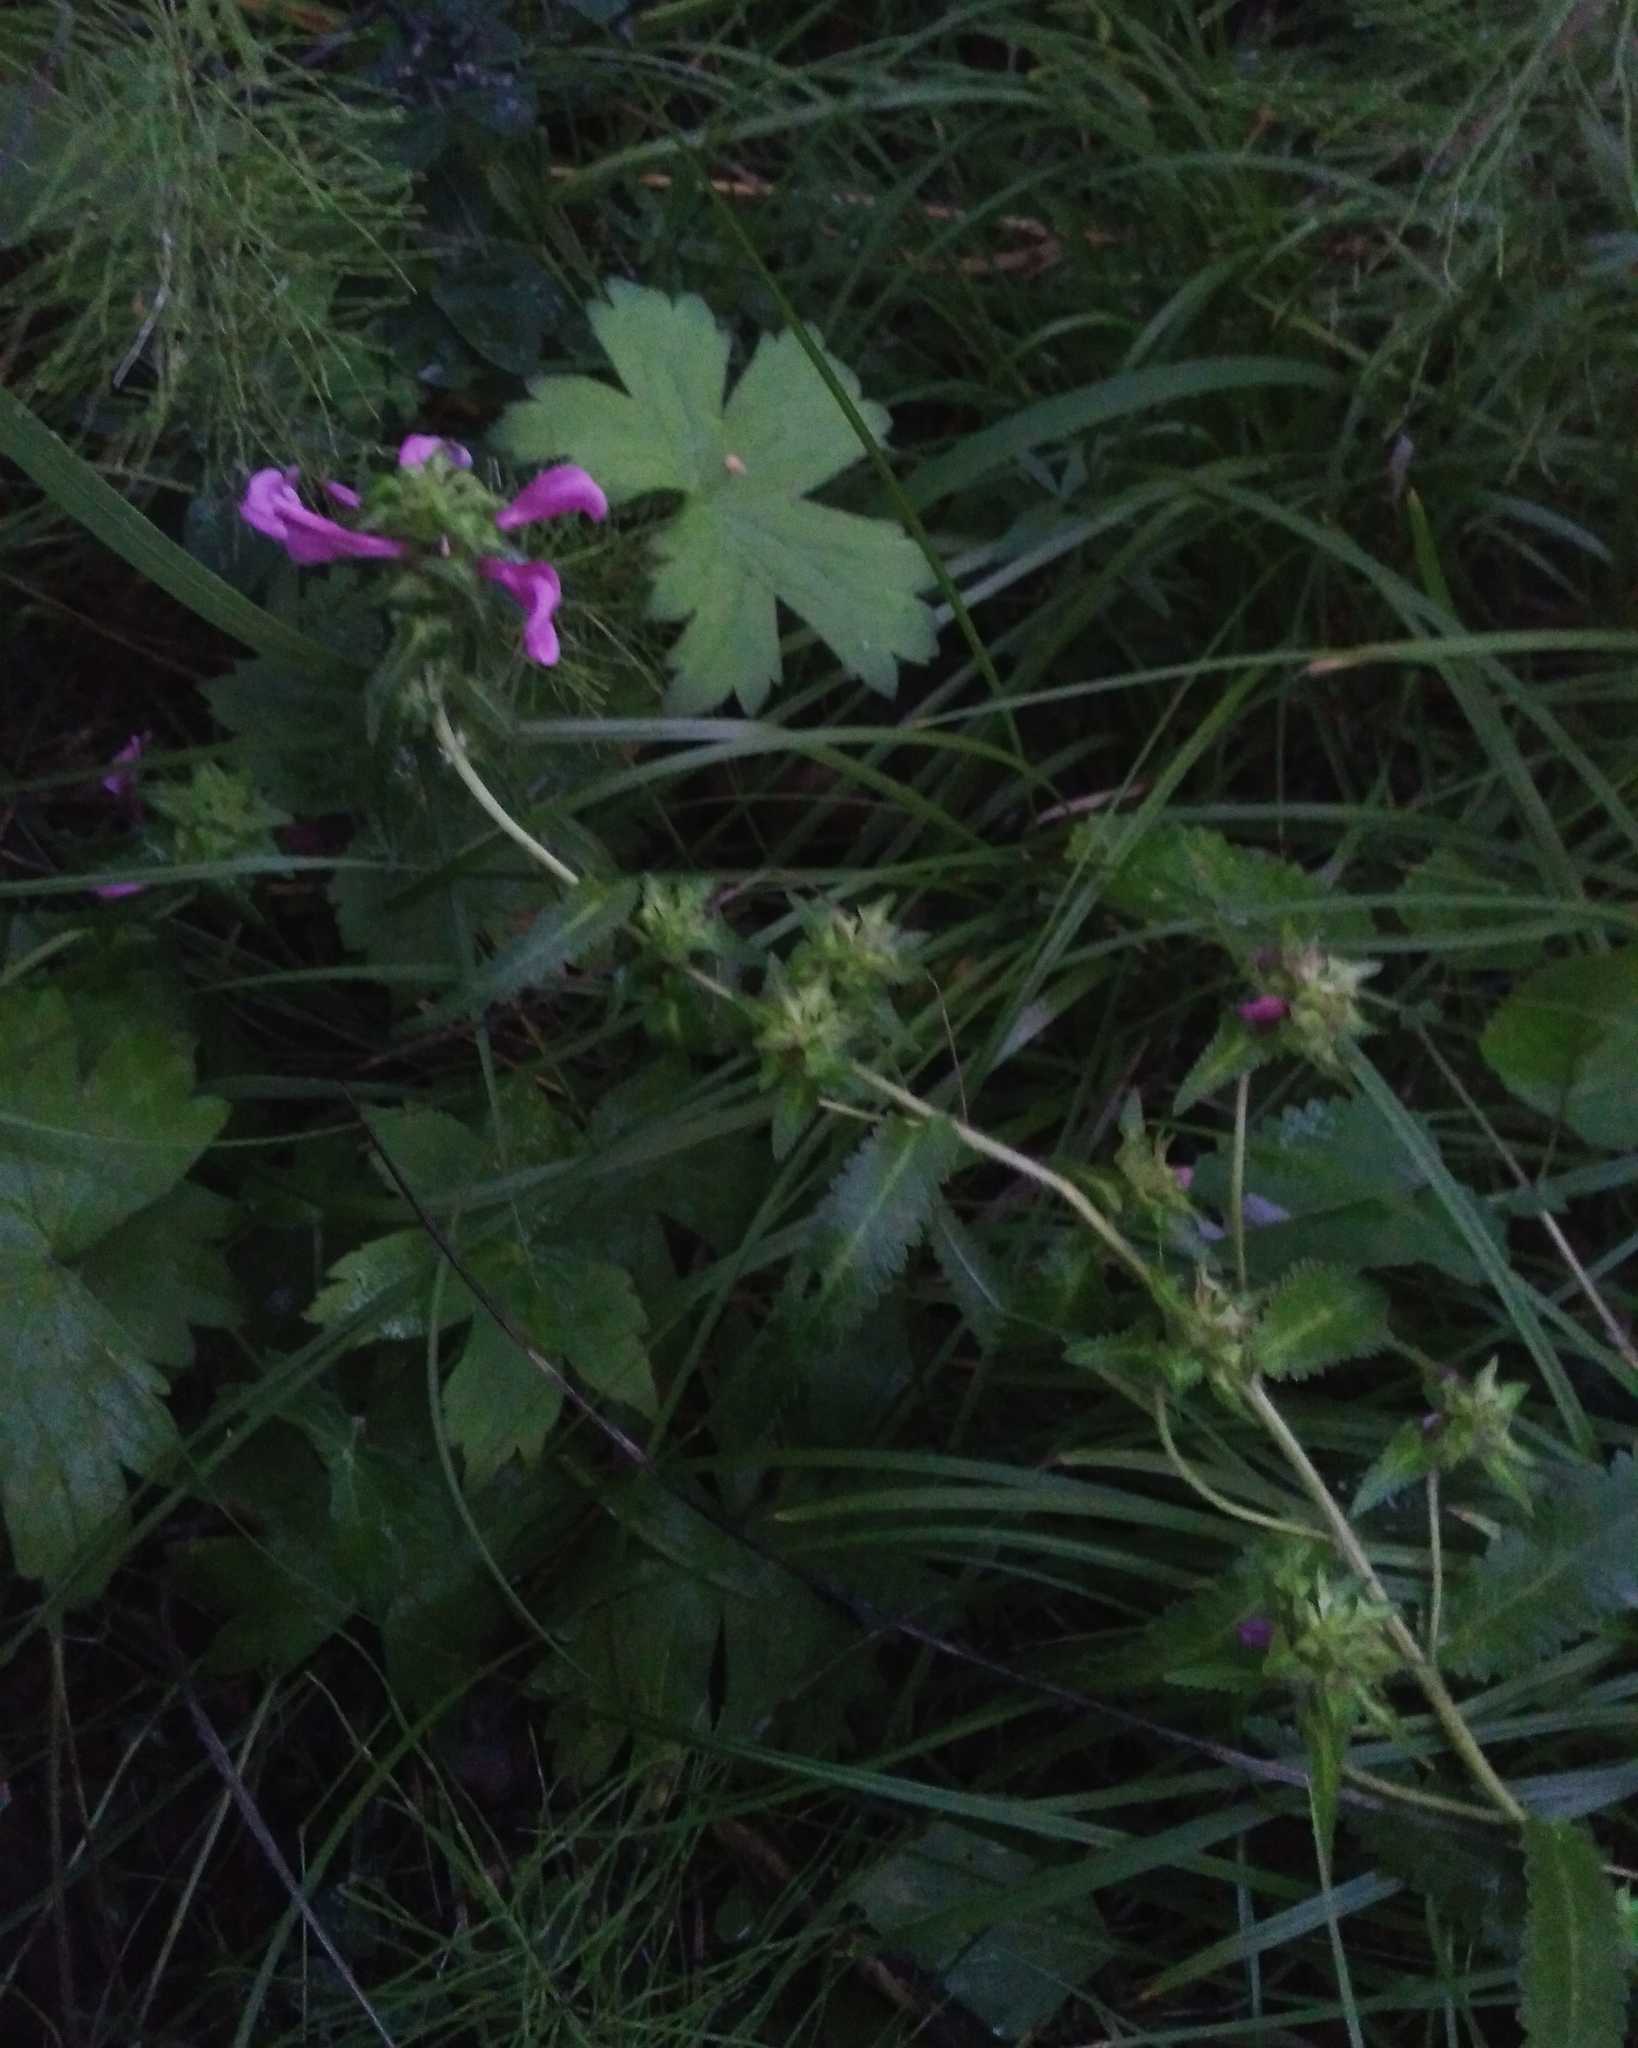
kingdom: Plantae
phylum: Tracheophyta
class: Magnoliopsida
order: Lamiales
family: Orobanchaceae
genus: Pedicularis
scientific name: Pedicularis resupinata
